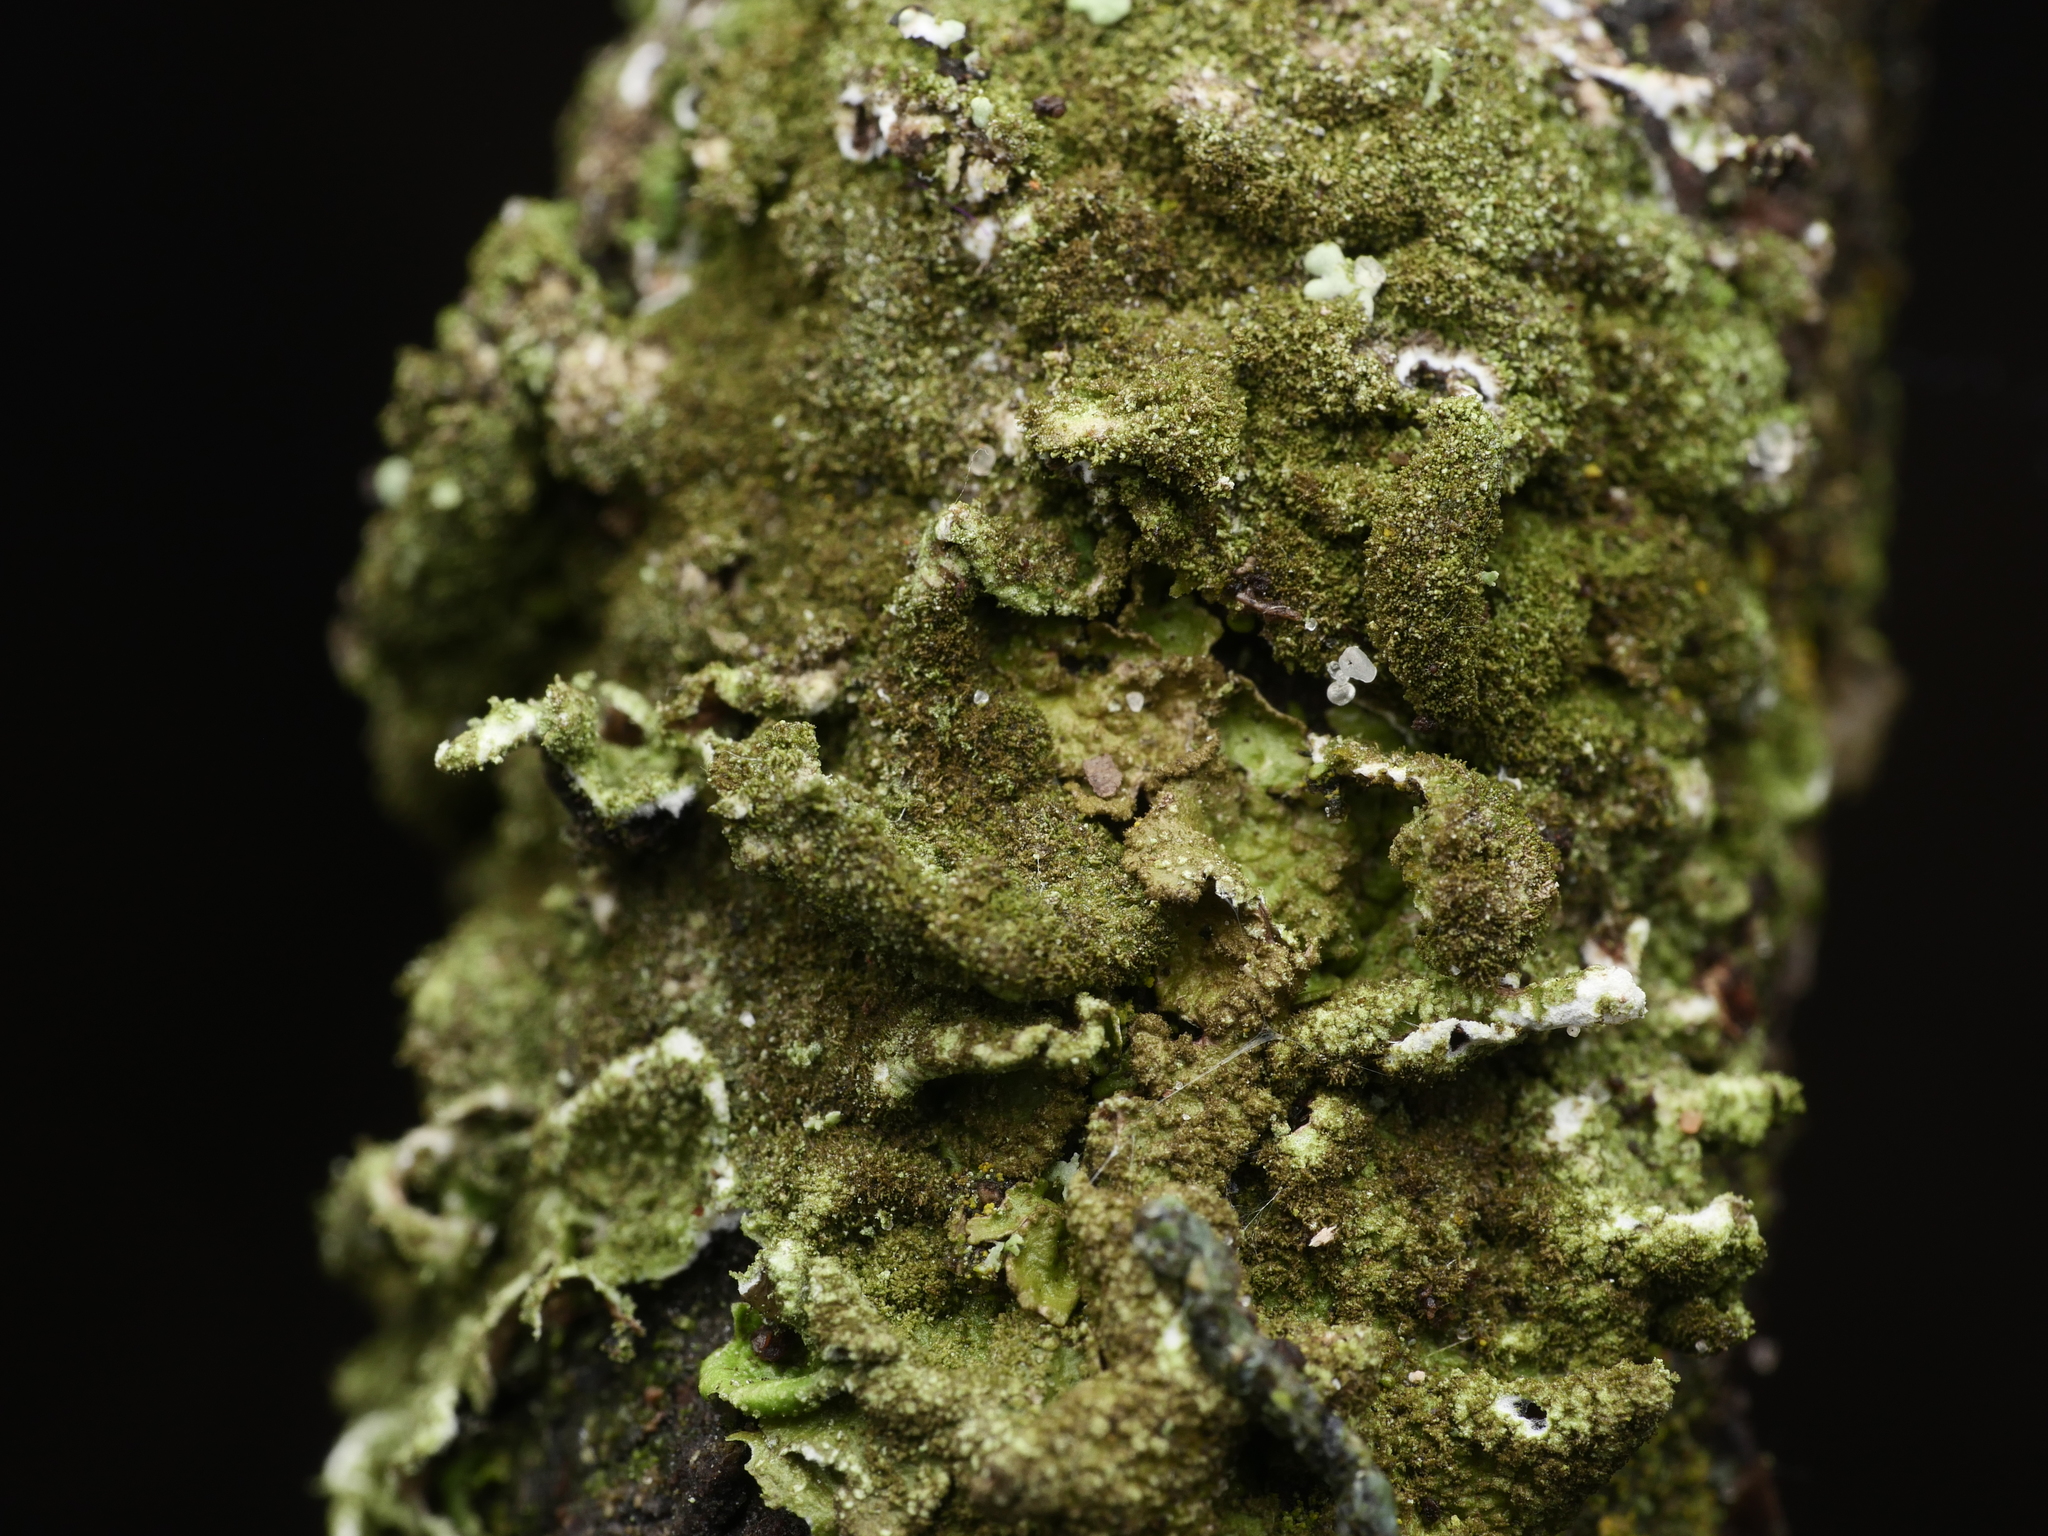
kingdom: Fungi
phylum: Ascomycota
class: Lecanoromycetes
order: Lecanorales
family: Parmeliaceae
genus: Melanelixia
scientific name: Melanelixia subaurifera
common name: Abraded camouflage lichen
